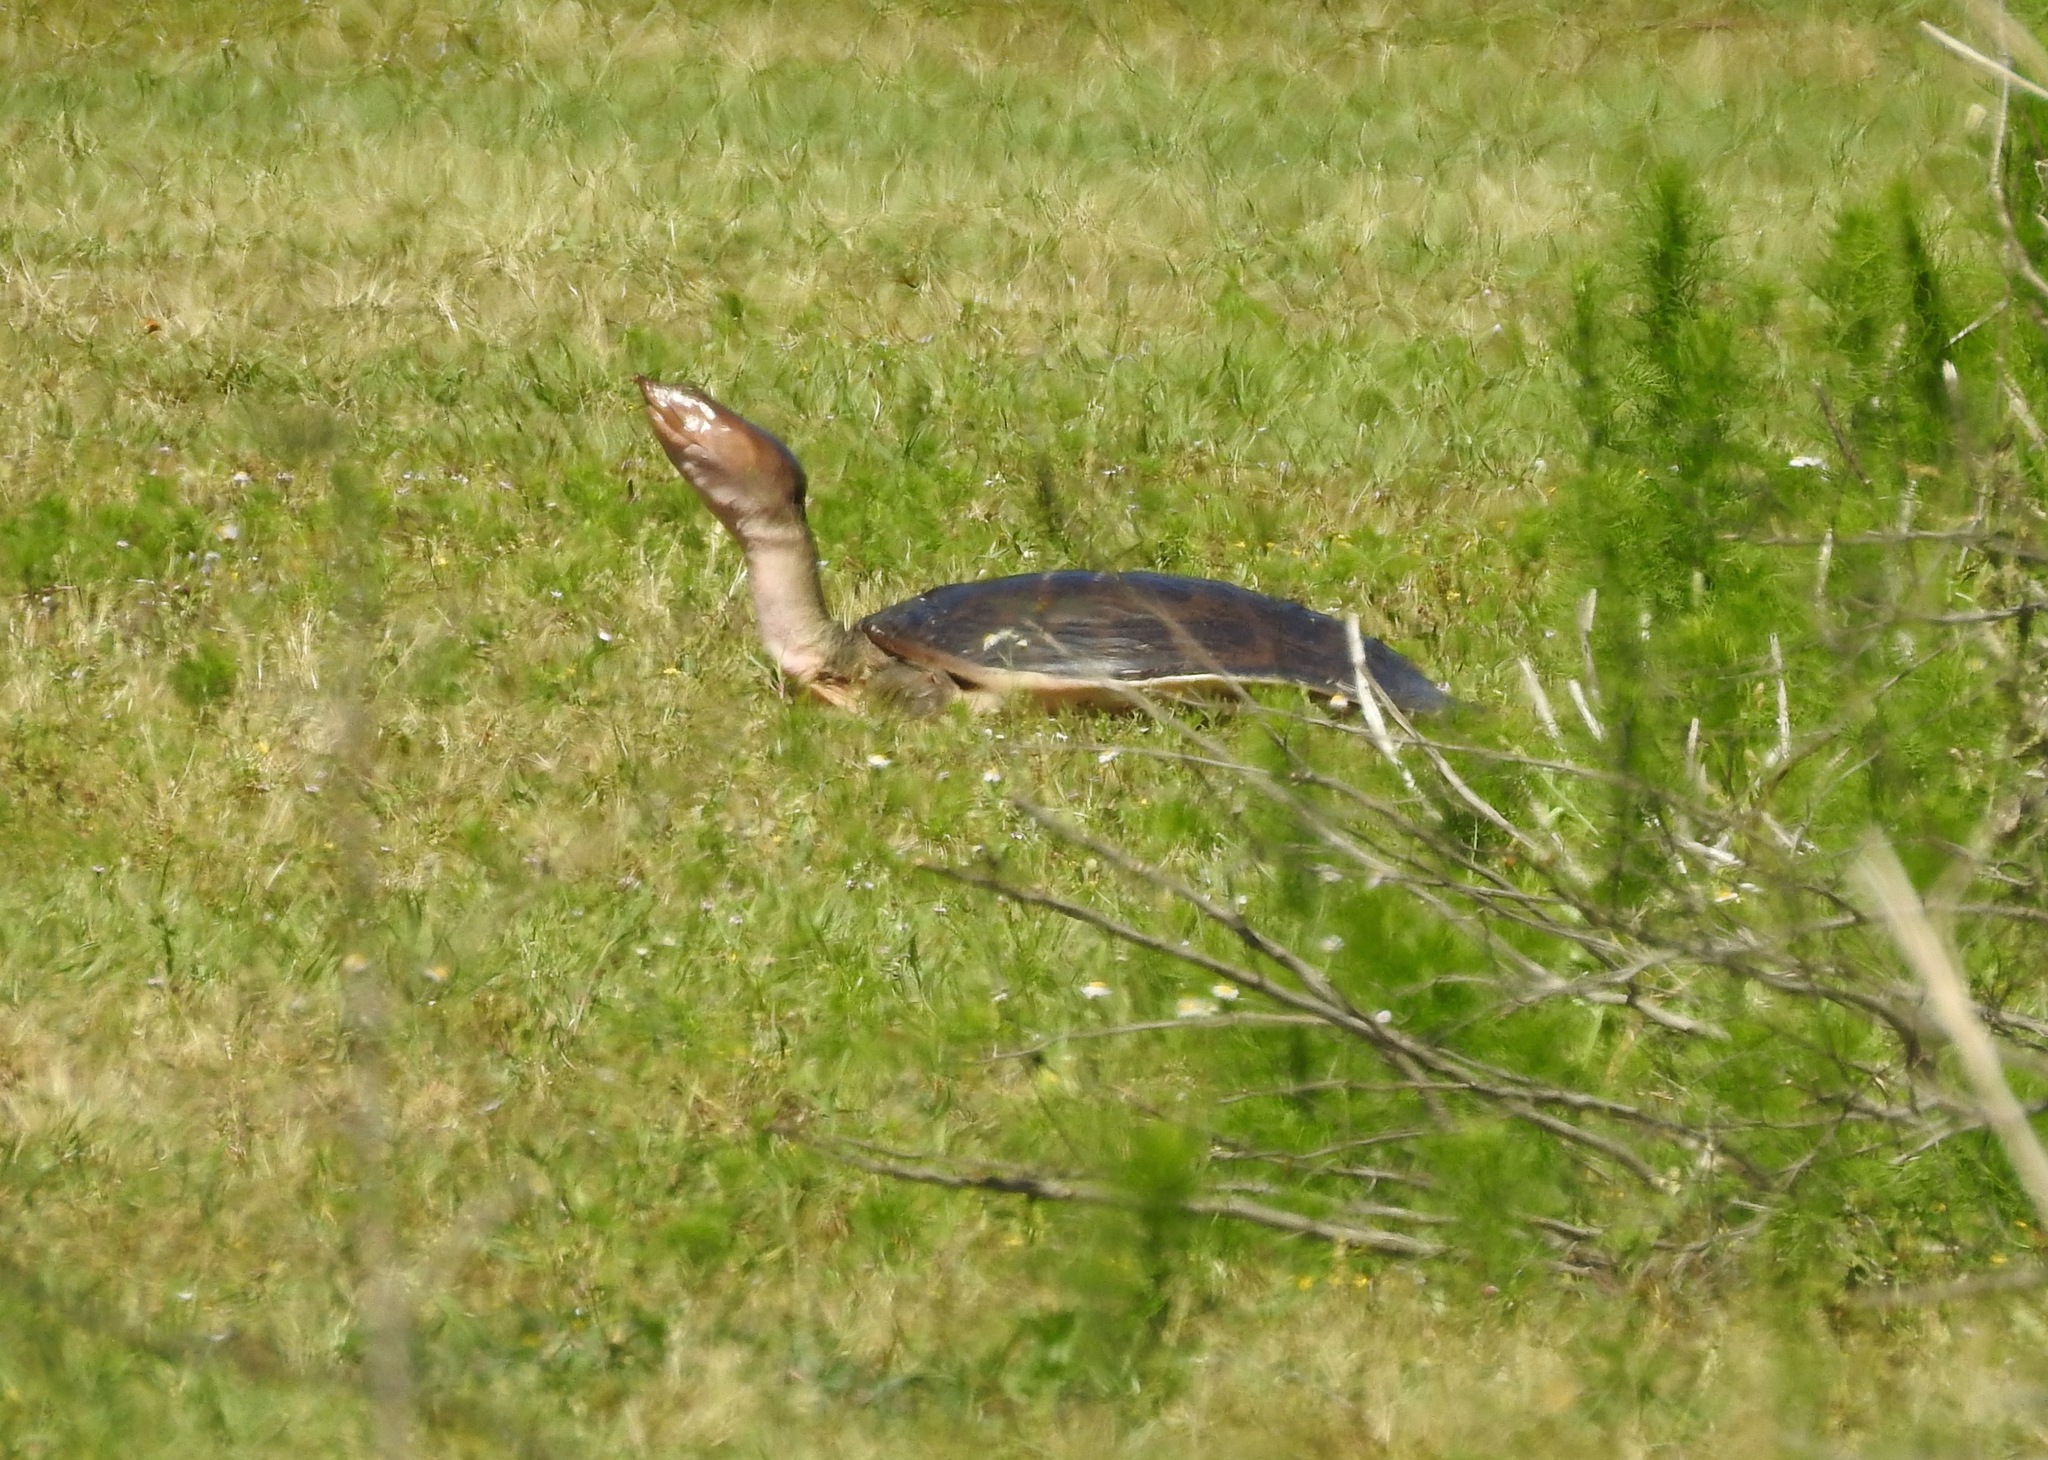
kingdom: Animalia
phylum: Chordata
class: Testudines
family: Trionychidae
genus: Apalone
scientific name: Apalone ferox
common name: Florida softshell turtle
